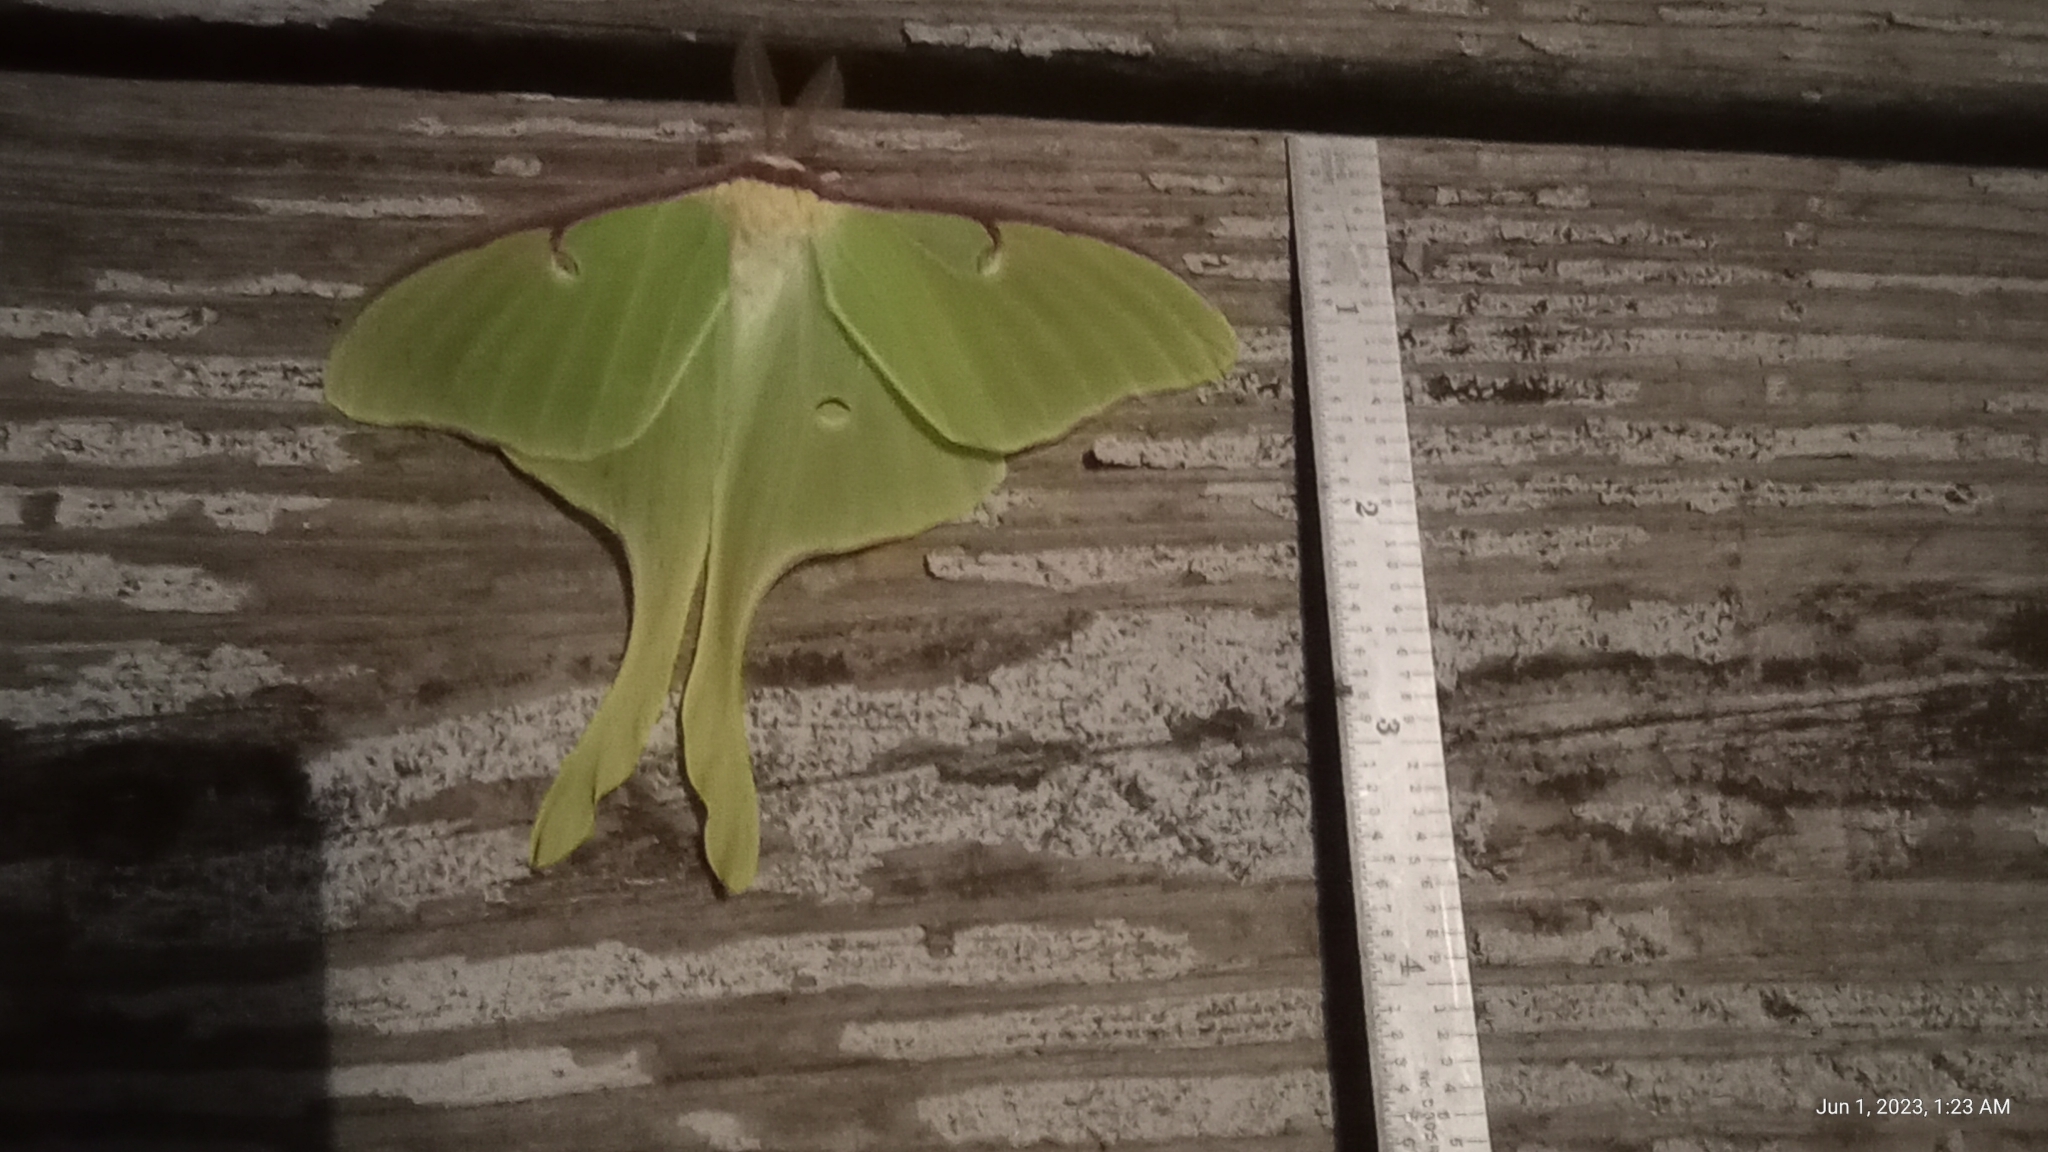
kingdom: Animalia
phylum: Arthropoda
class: Insecta
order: Lepidoptera
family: Saturniidae
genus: Actias
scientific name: Actias luna
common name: Luna moth
